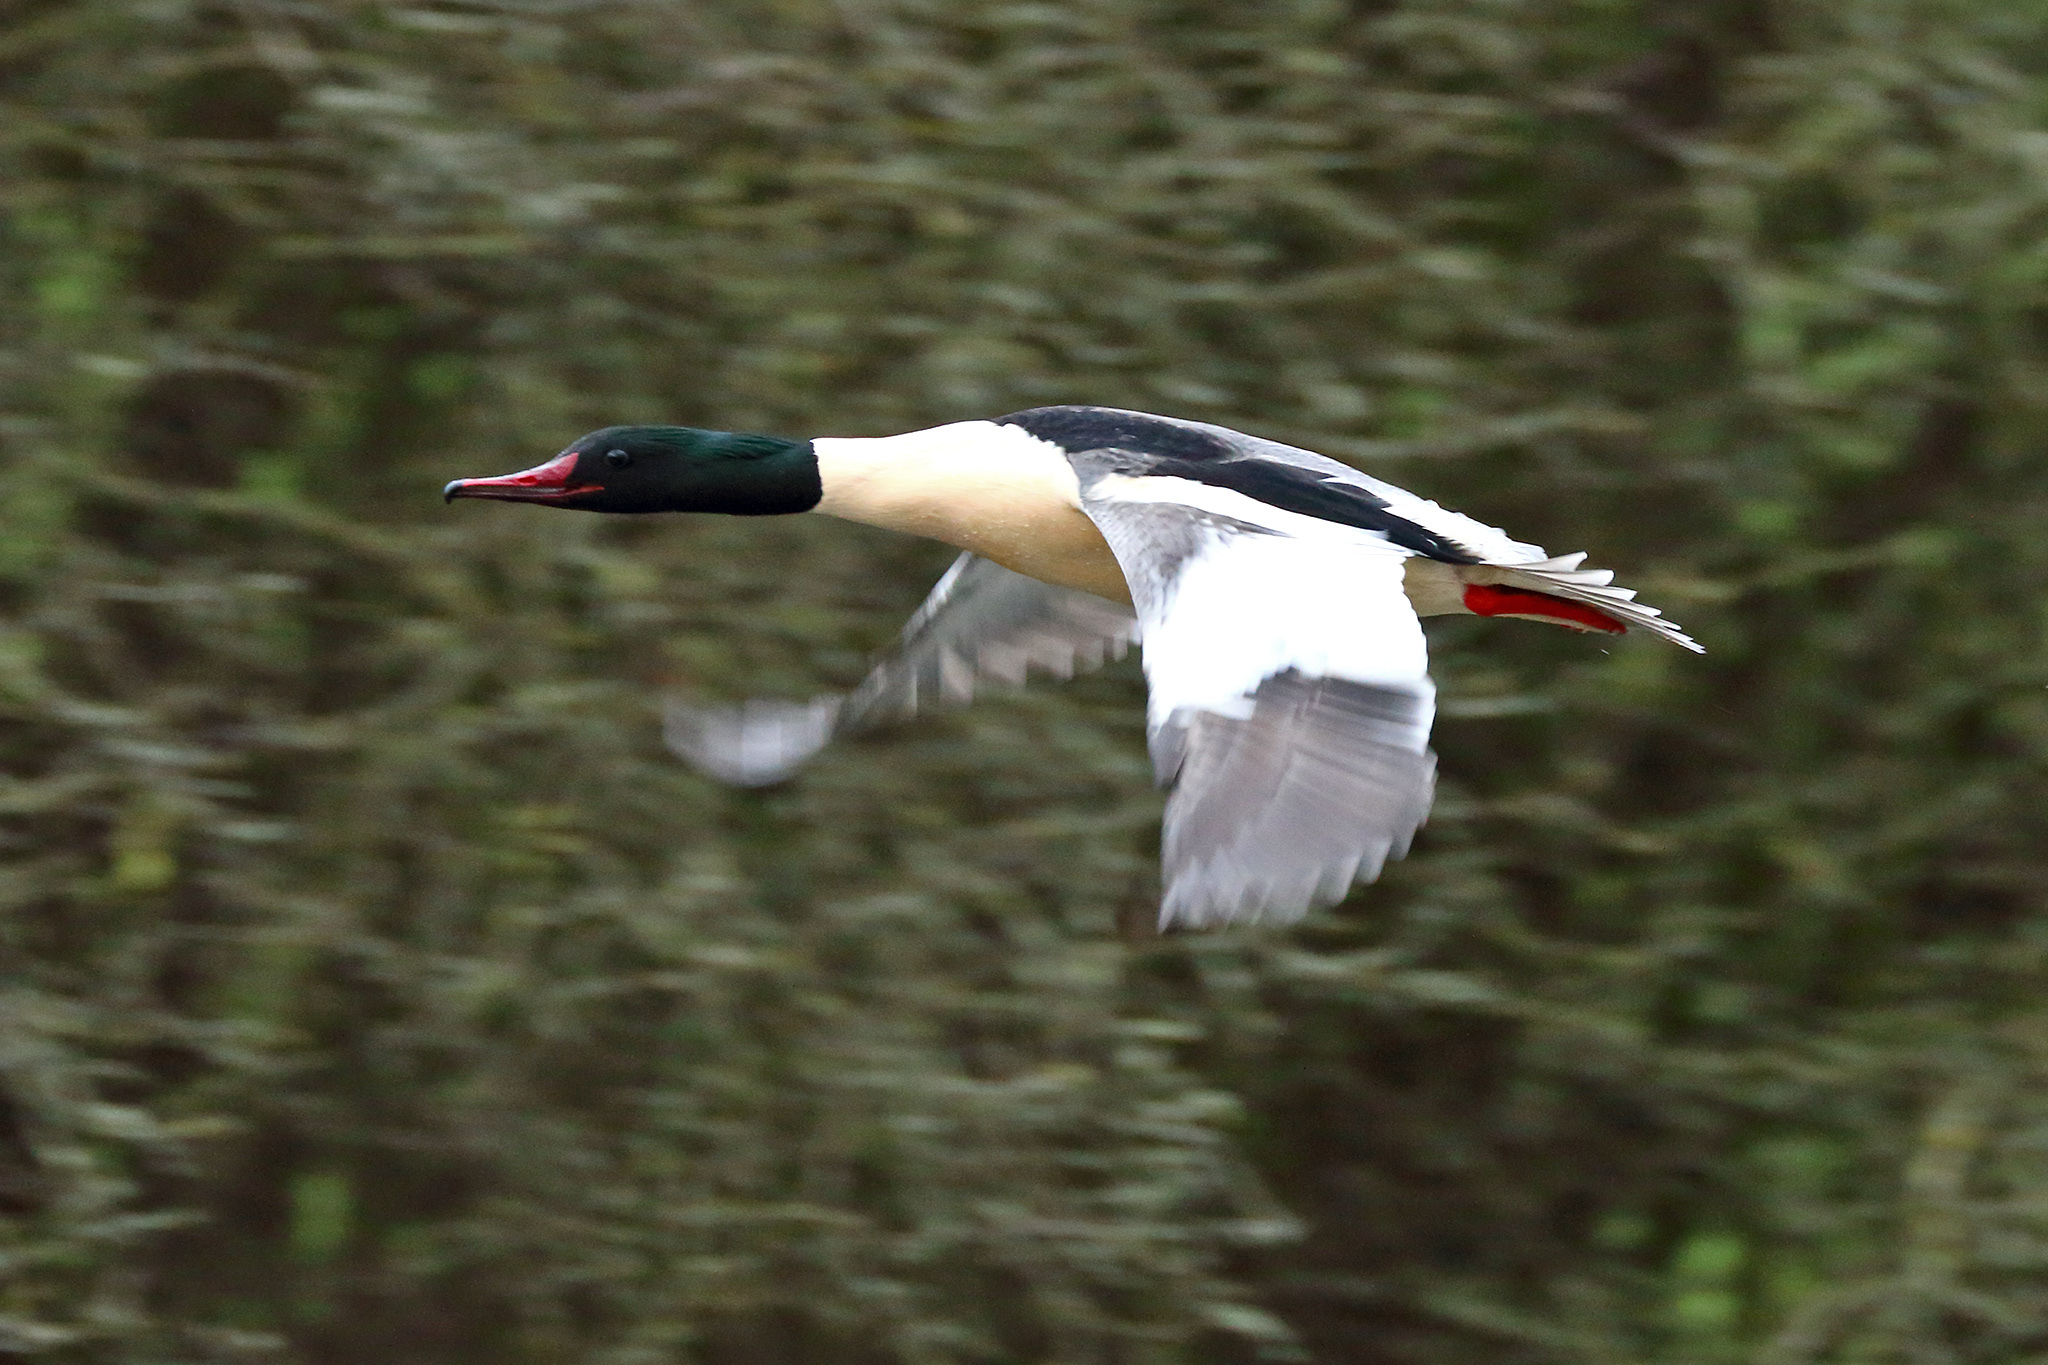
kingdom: Animalia
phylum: Chordata
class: Aves
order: Anseriformes
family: Anatidae
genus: Mergus
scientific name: Mergus merganser
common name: Common merganser
